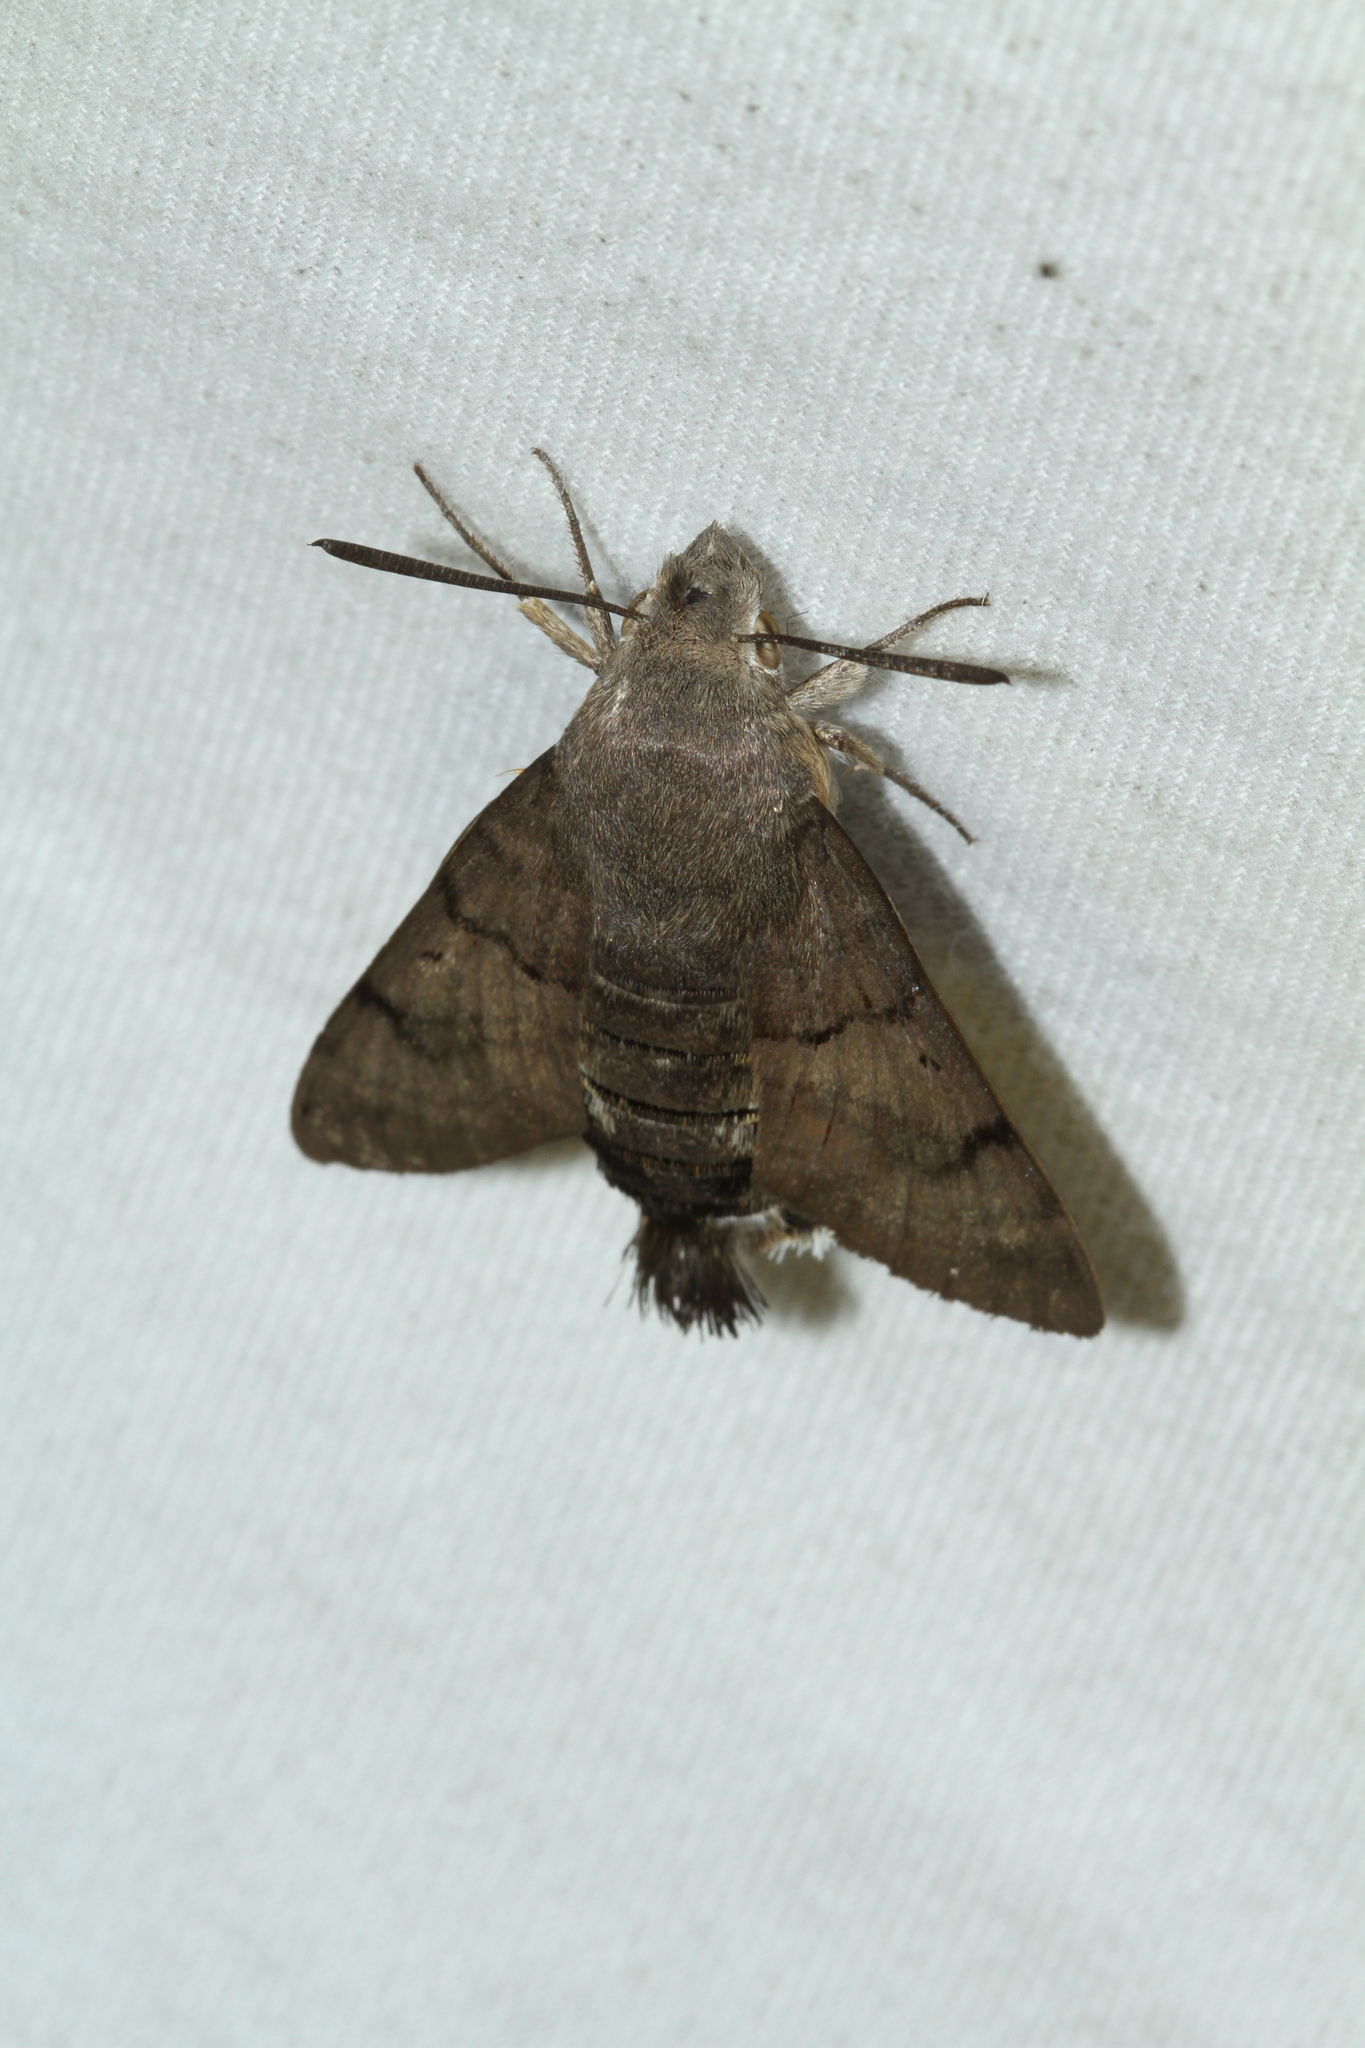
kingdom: Animalia
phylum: Arthropoda
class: Insecta
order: Lepidoptera
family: Sphingidae
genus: Macroglossum
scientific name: Macroglossum stellatarum
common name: Humming-bird hawk-moth
